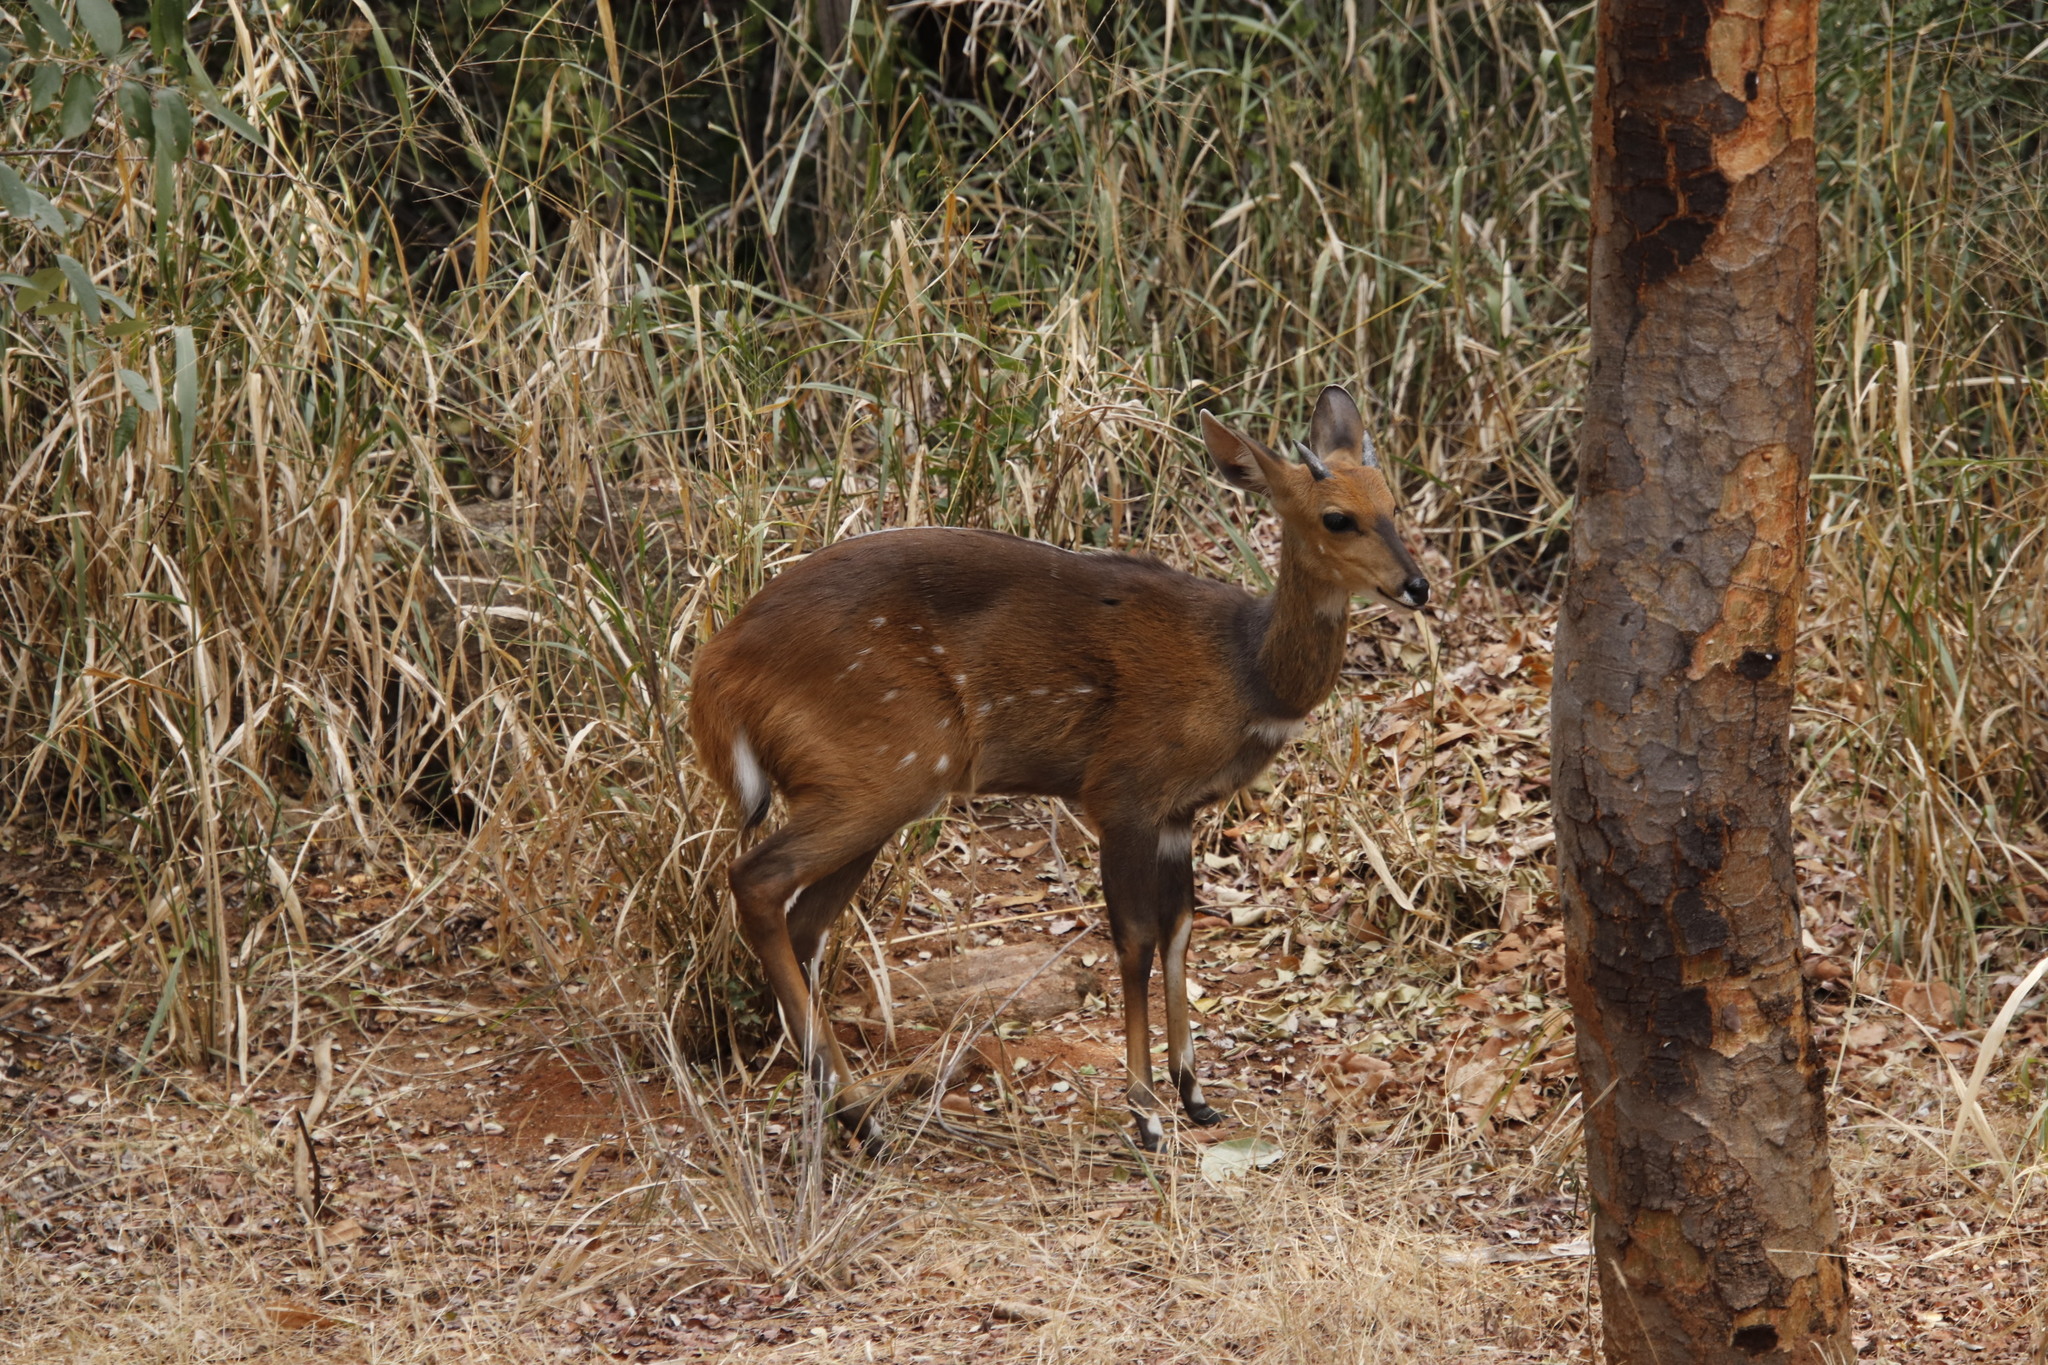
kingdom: Animalia
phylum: Chordata
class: Mammalia
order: Artiodactyla
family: Bovidae
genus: Tragelaphus
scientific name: Tragelaphus scriptus
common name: Bushbuck
